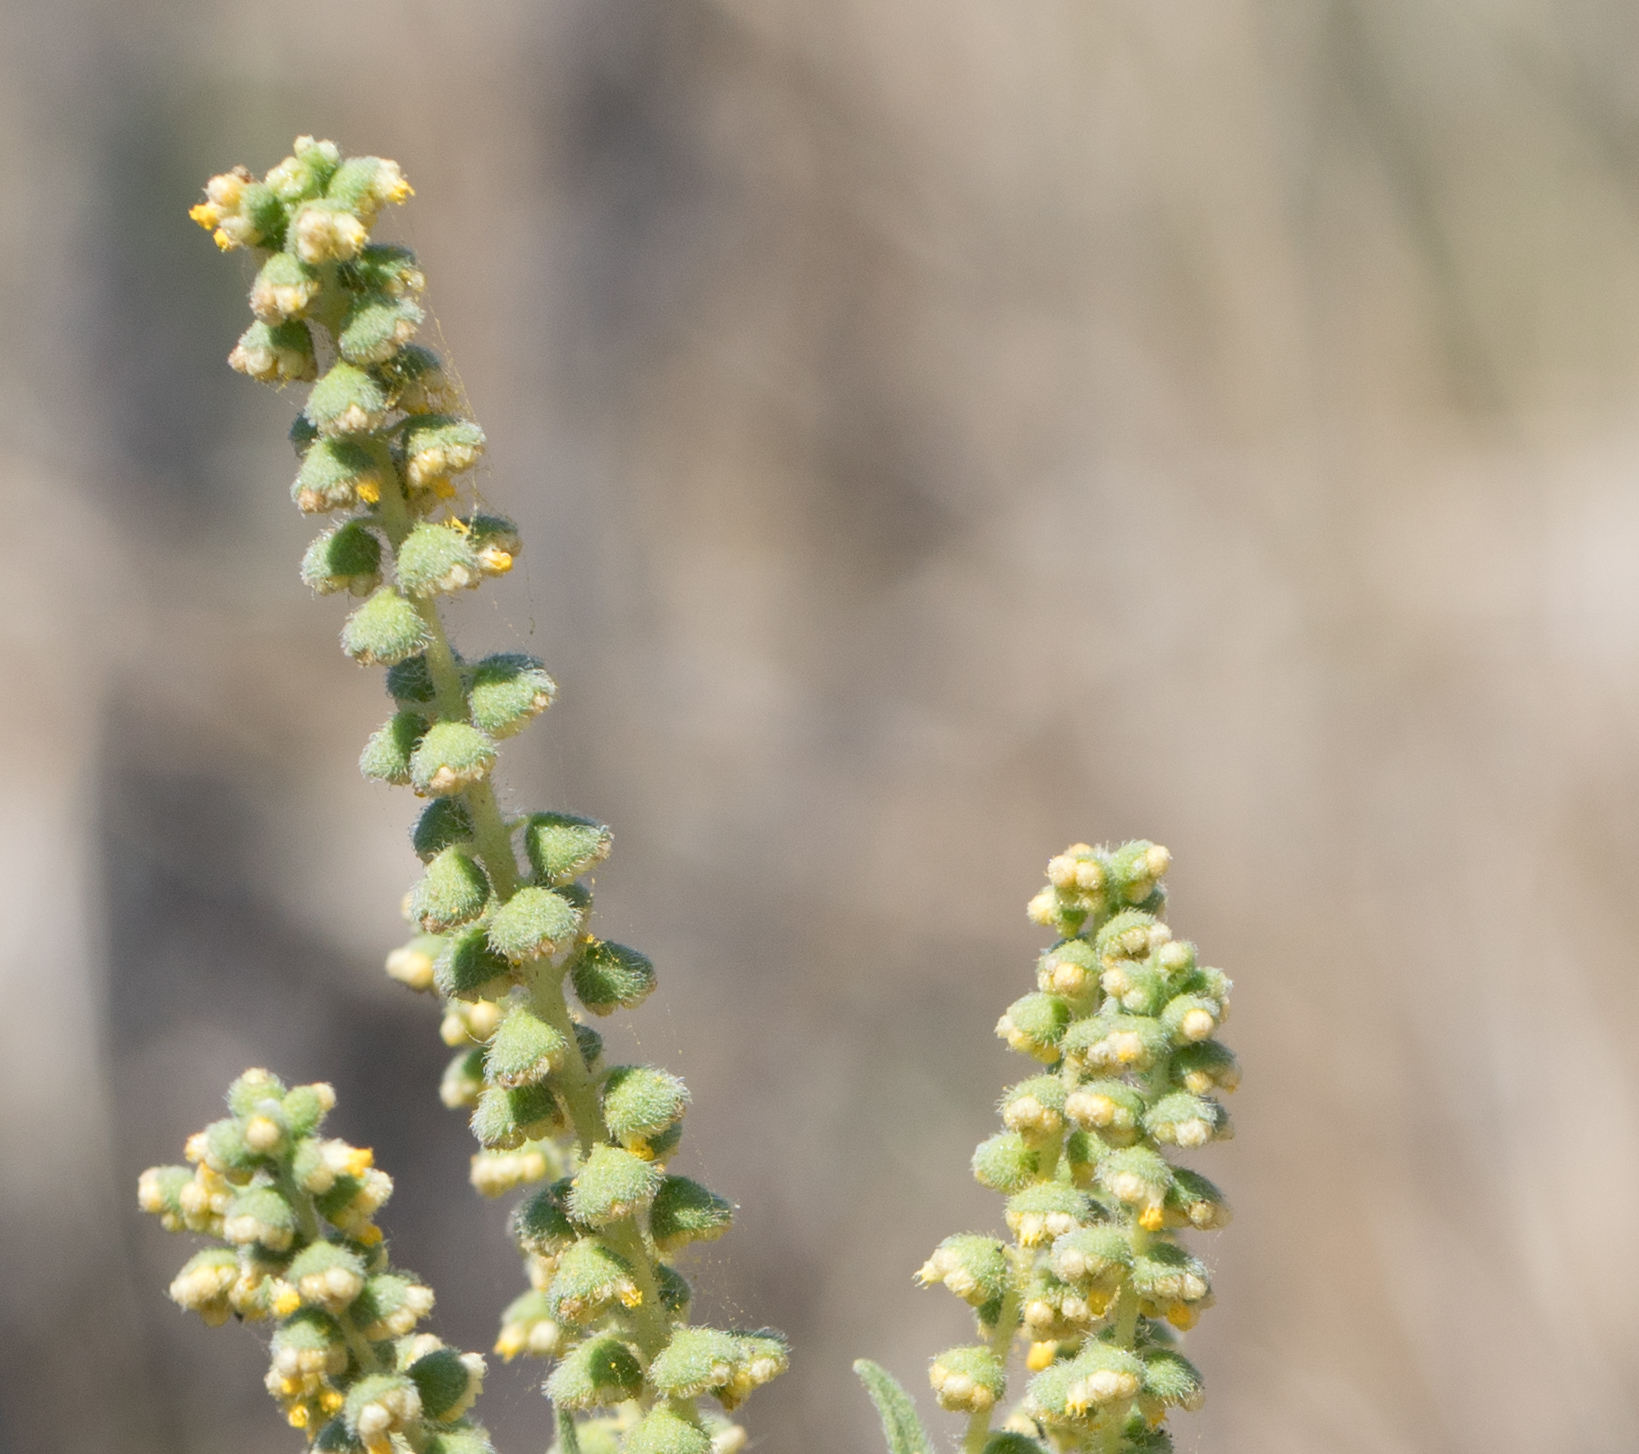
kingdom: Plantae
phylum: Tracheophyta
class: Magnoliopsida
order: Asterales
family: Asteraceae
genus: Ambrosia
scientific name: Ambrosia psilostachya
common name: Perennial ragweed
